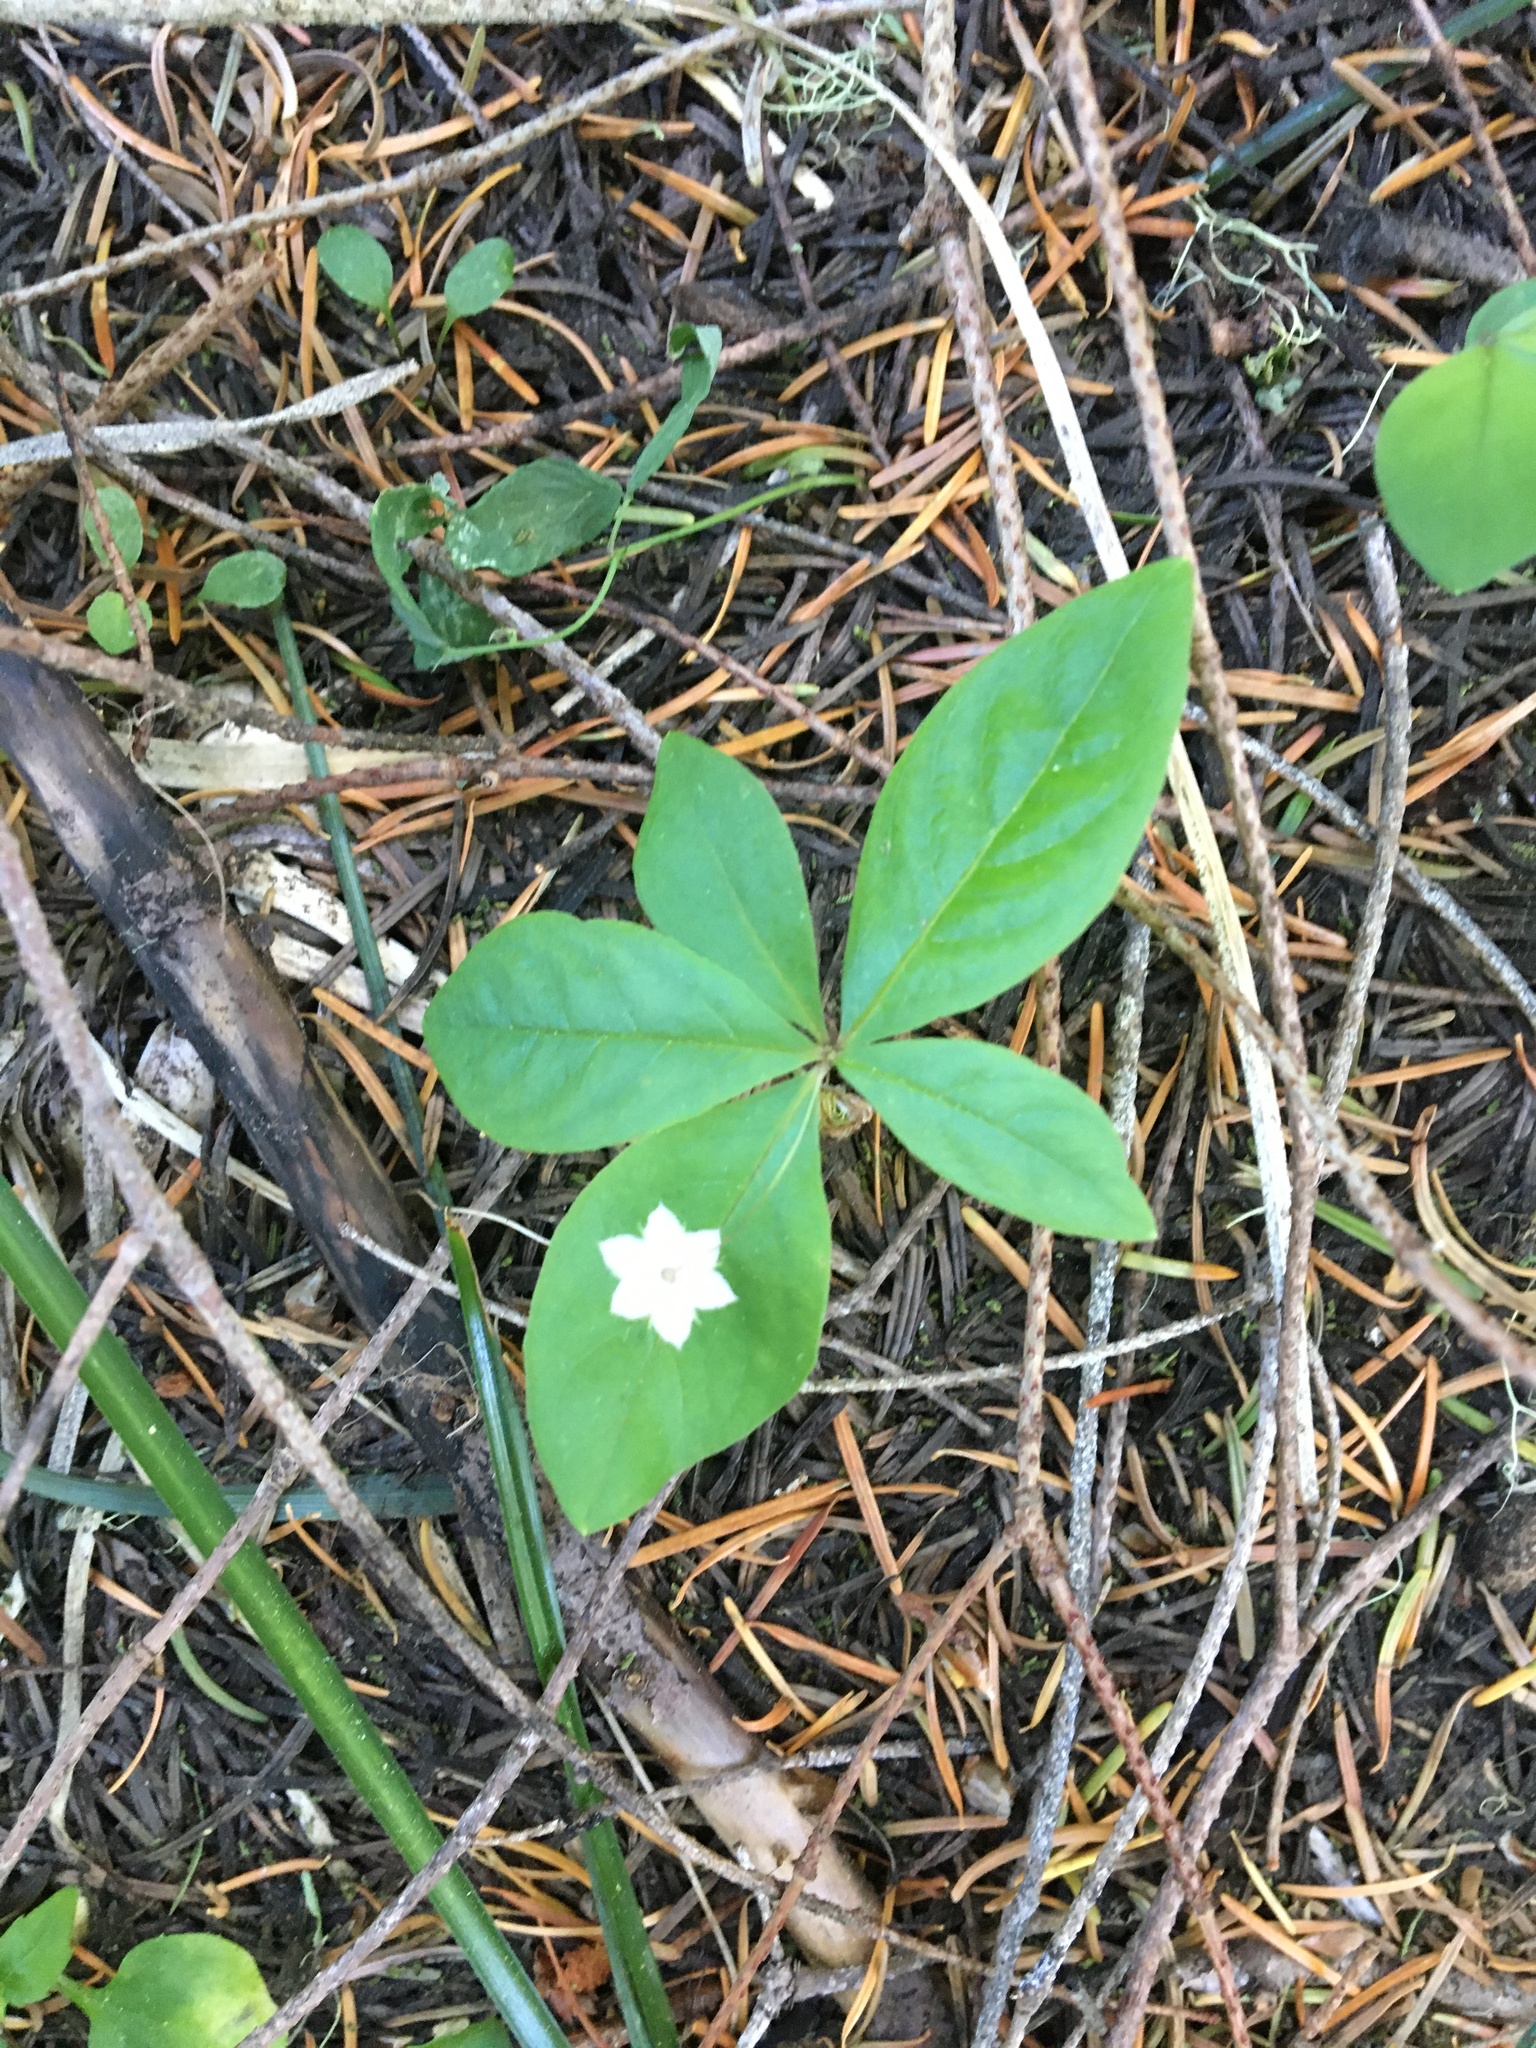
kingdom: Plantae
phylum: Tracheophyta
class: Magnoliopsida
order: Ericales
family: Primulaceae
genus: Lysimachia
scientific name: Lysimachia latifolia
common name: Pacific starflower
